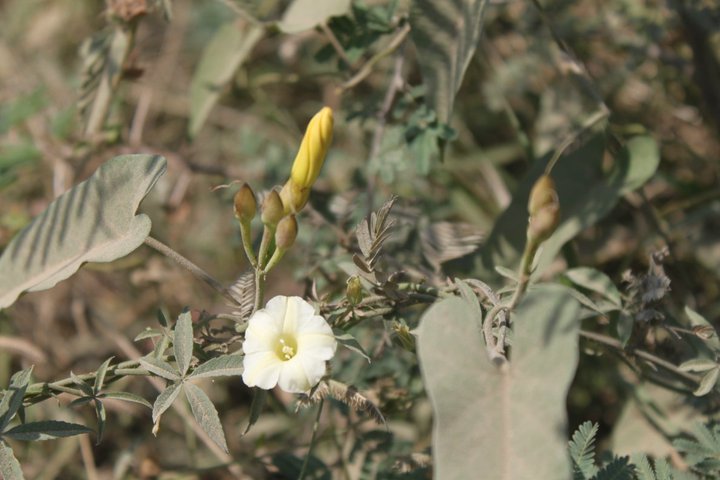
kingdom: Plantae
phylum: Tracheophyta
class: Magnoliopsida
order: Solanales
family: Convolvulaceae
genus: Distimake
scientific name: Distimake quinquefolius
